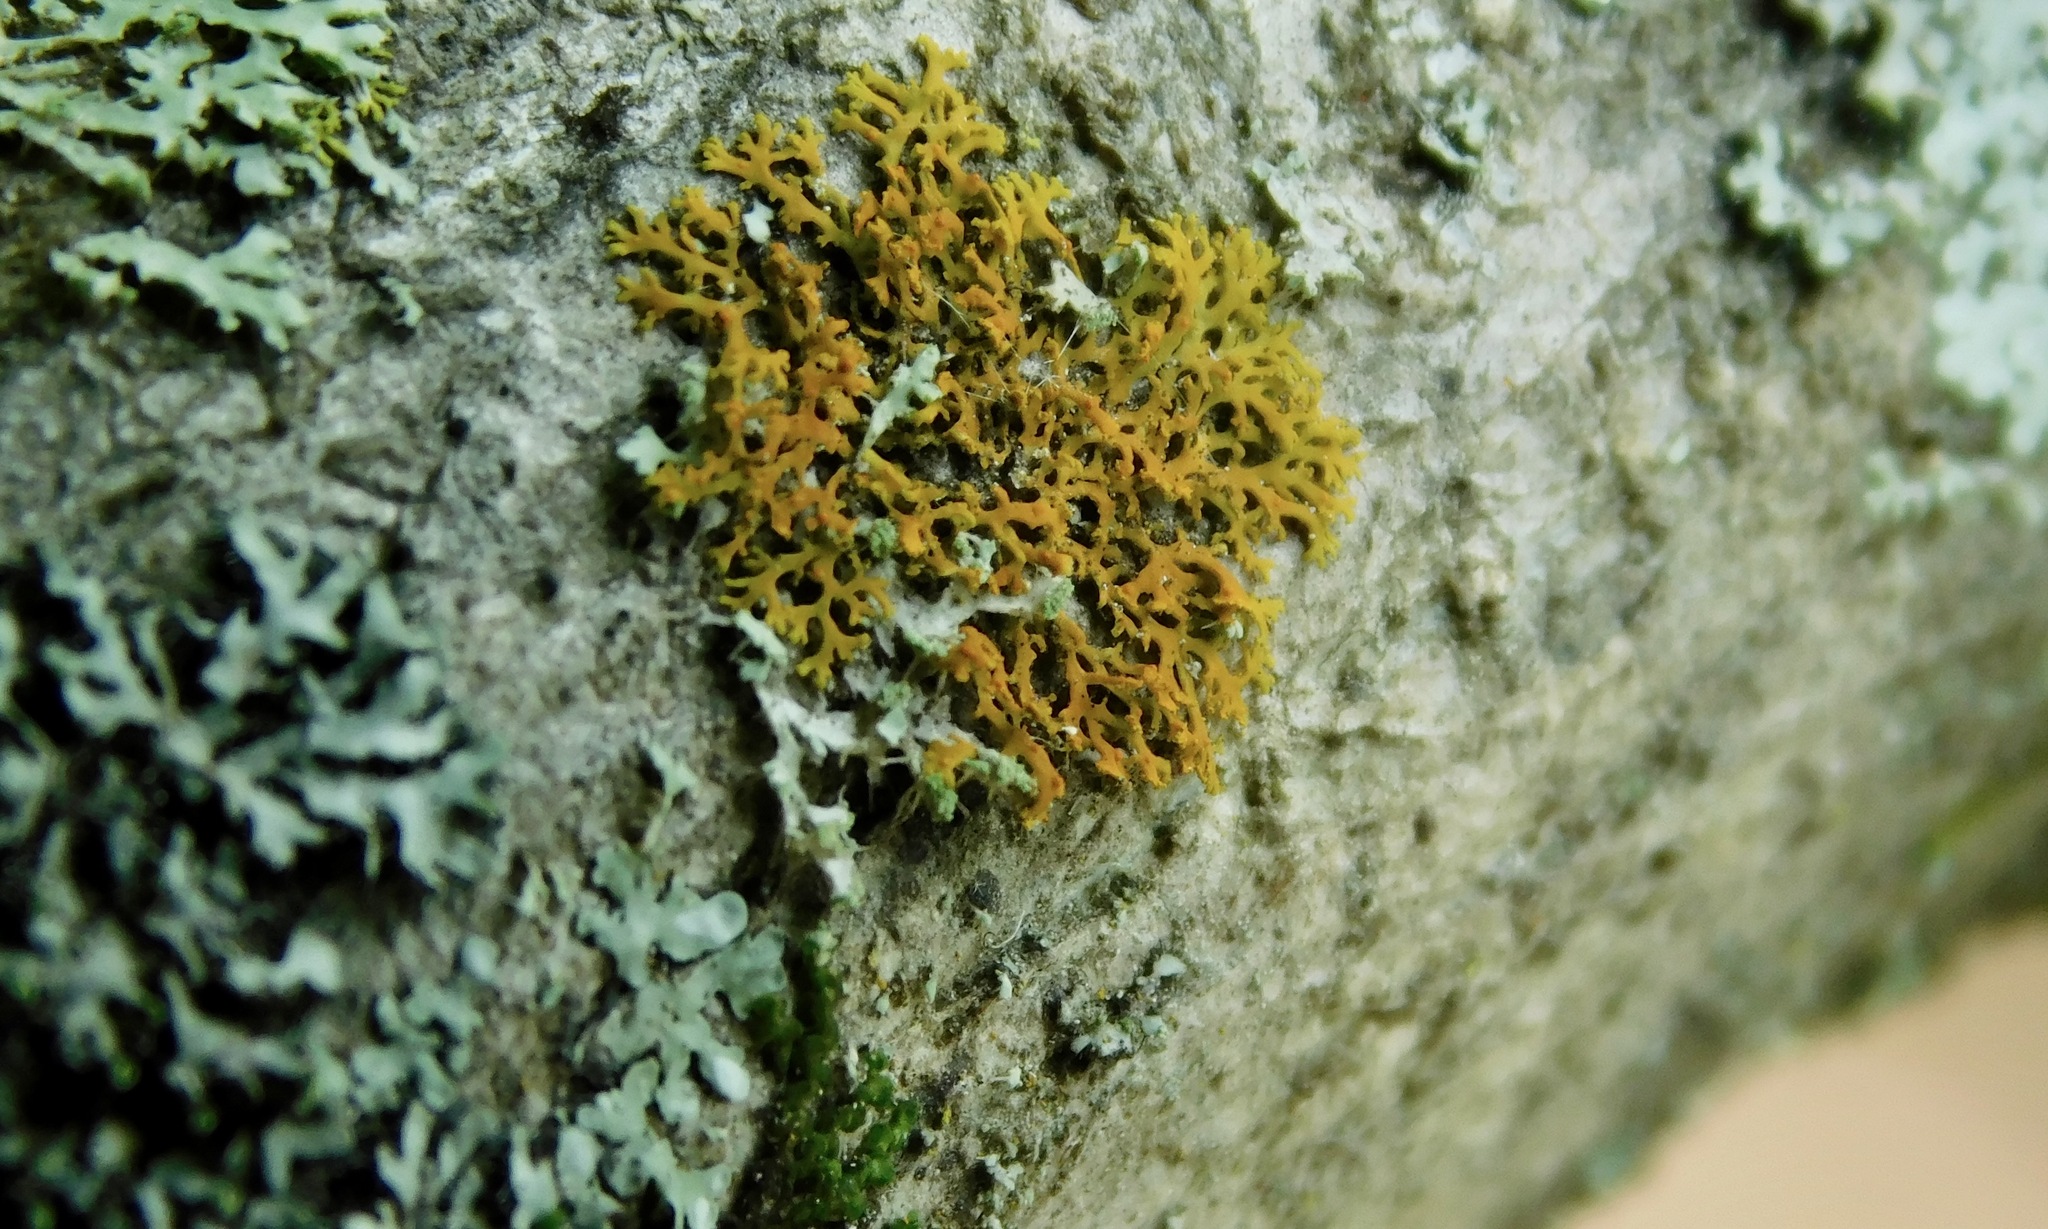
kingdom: Fungi
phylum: Ascomycota
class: Lecanoromycetes
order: Teloschistales
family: Teloschistaceae
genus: Gallowayella
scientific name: Gallowayella weberi
